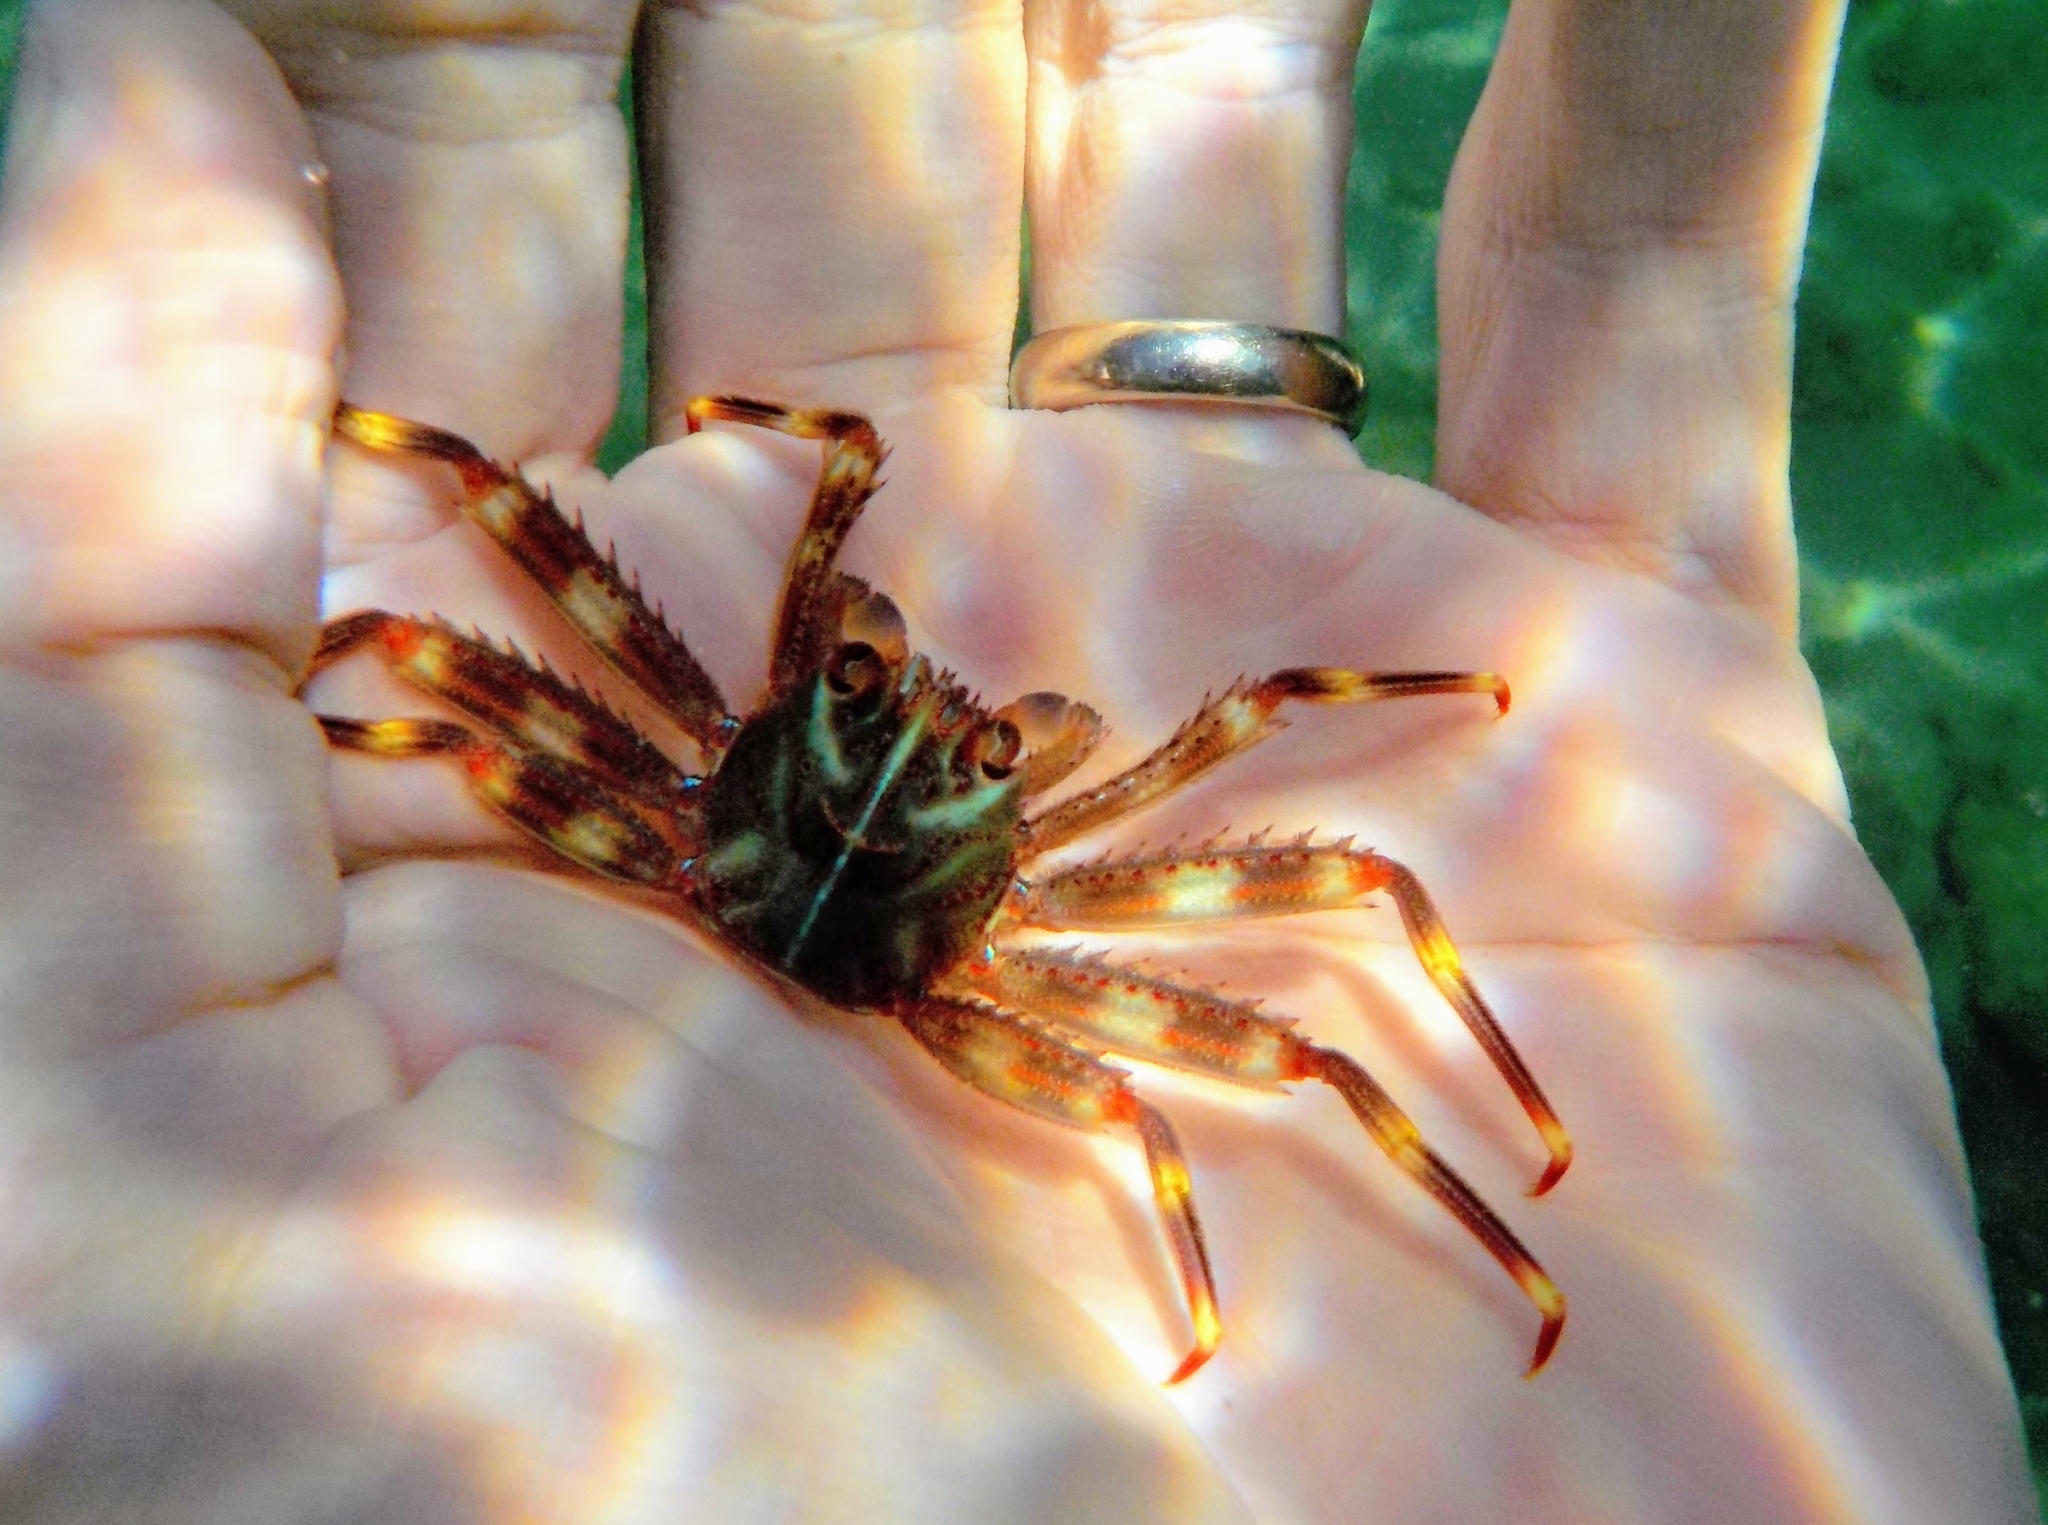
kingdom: Animalia
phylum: Arthropoda
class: Malacostraca
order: Decapoda
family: Percnidae
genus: Percnon
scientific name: Percnon gibbesi
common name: Nimble spray crab
